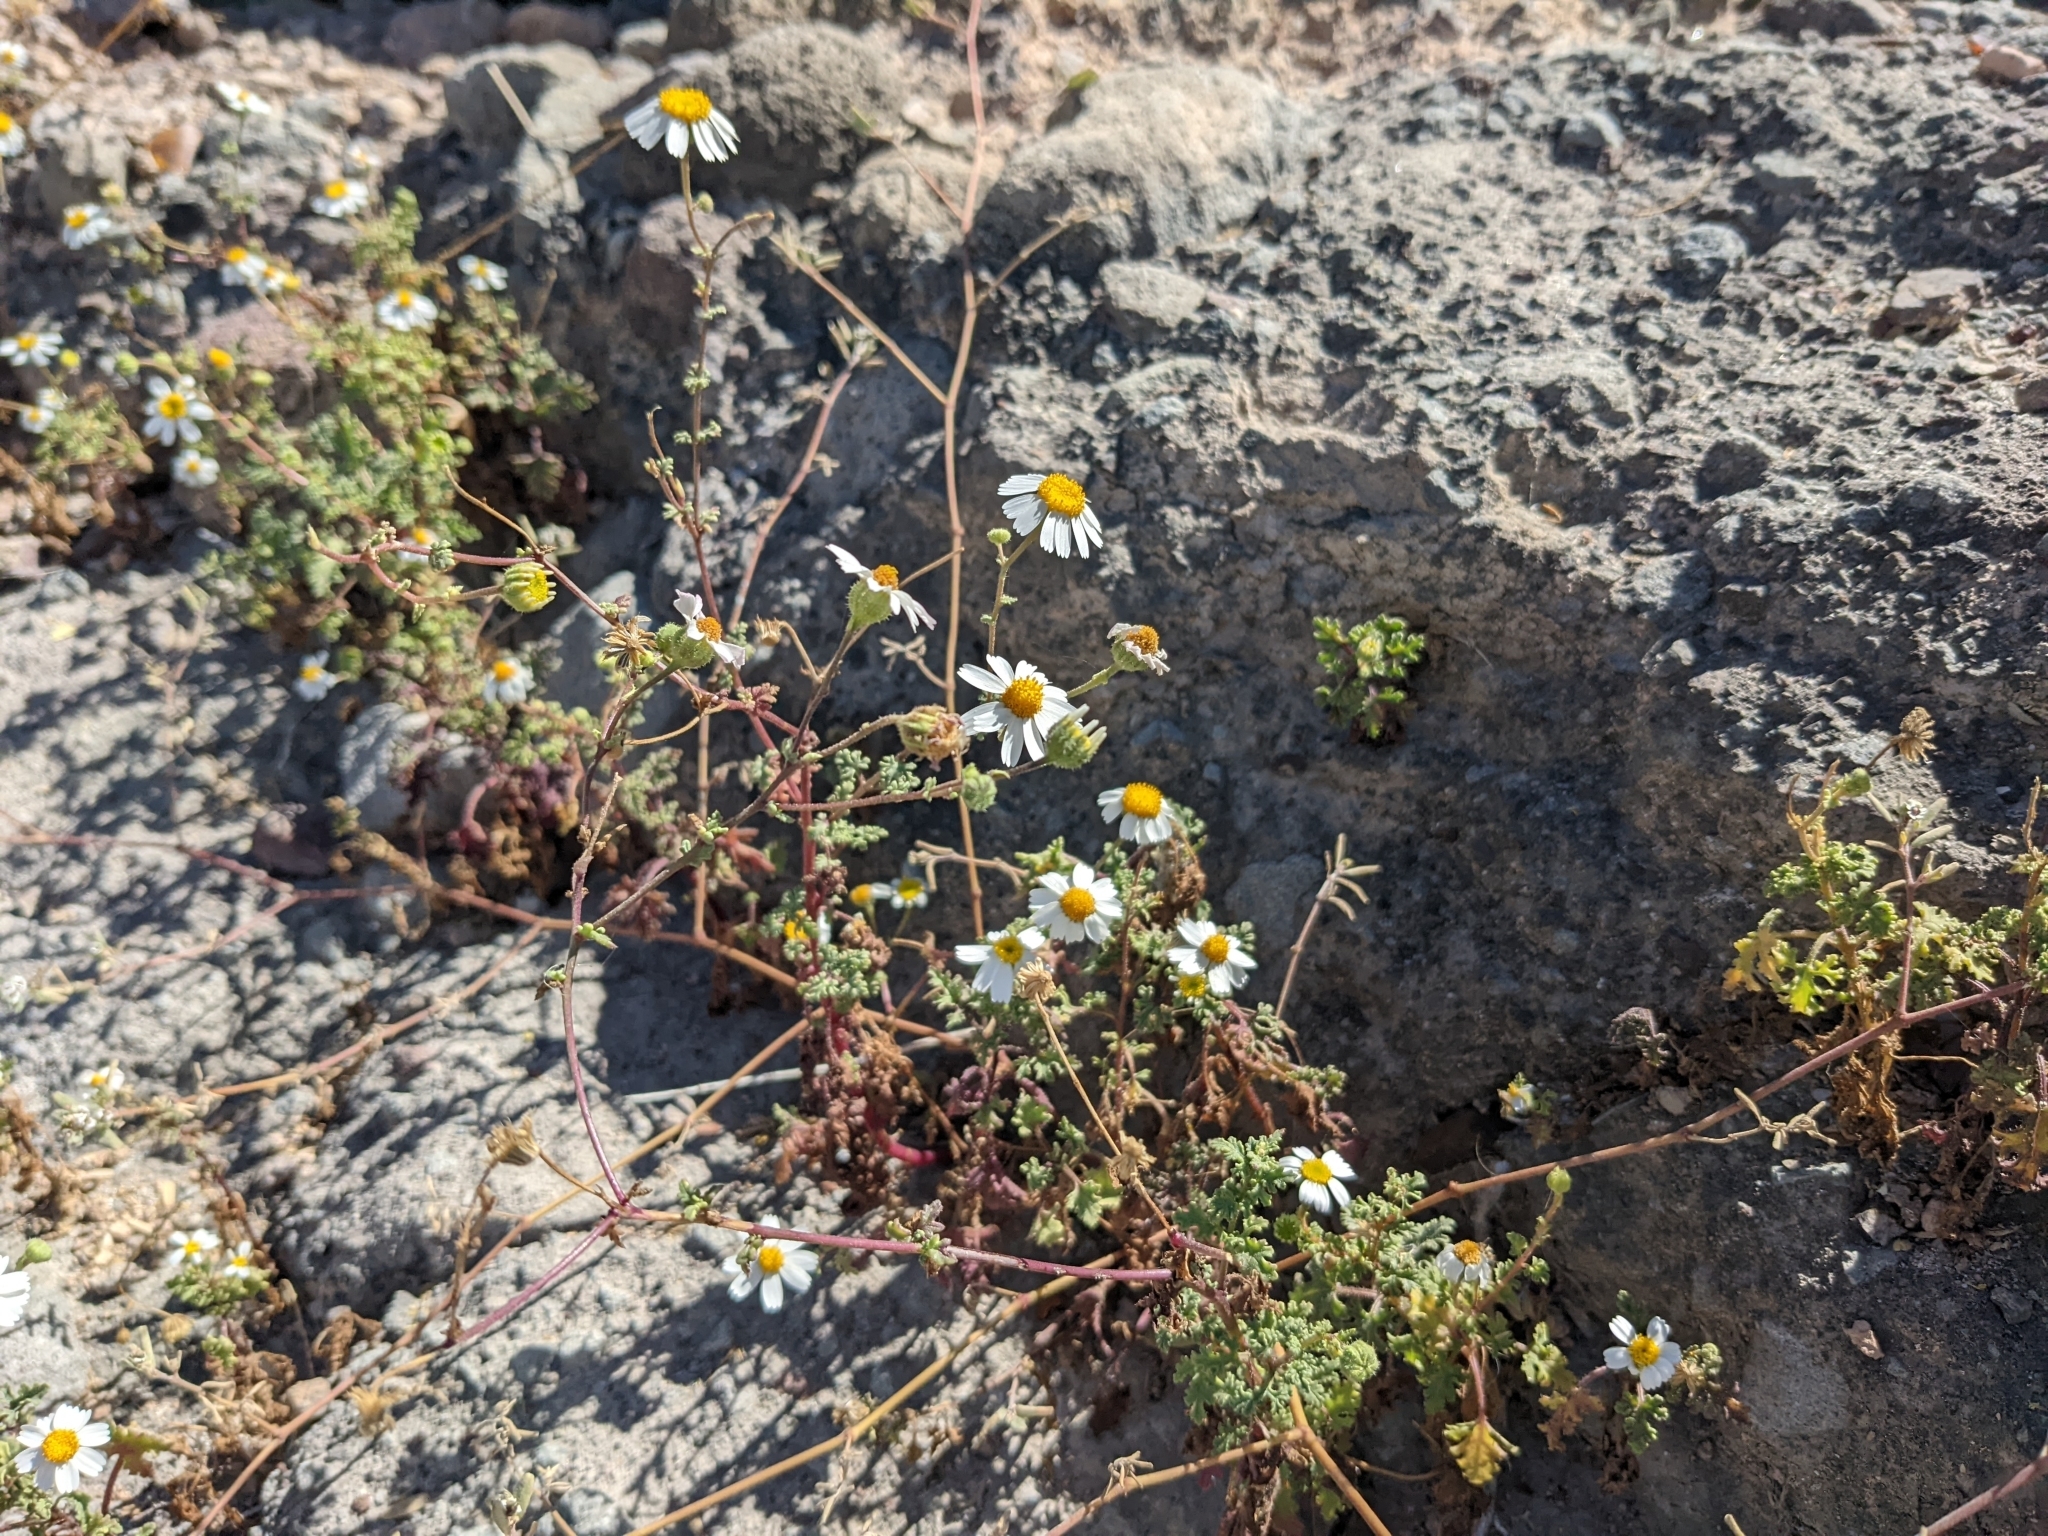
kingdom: Plantae
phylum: Tracheophyta
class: Magnoliopsida
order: Asterales
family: Asteraceae
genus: Perityle
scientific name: Perityle crassifolia
